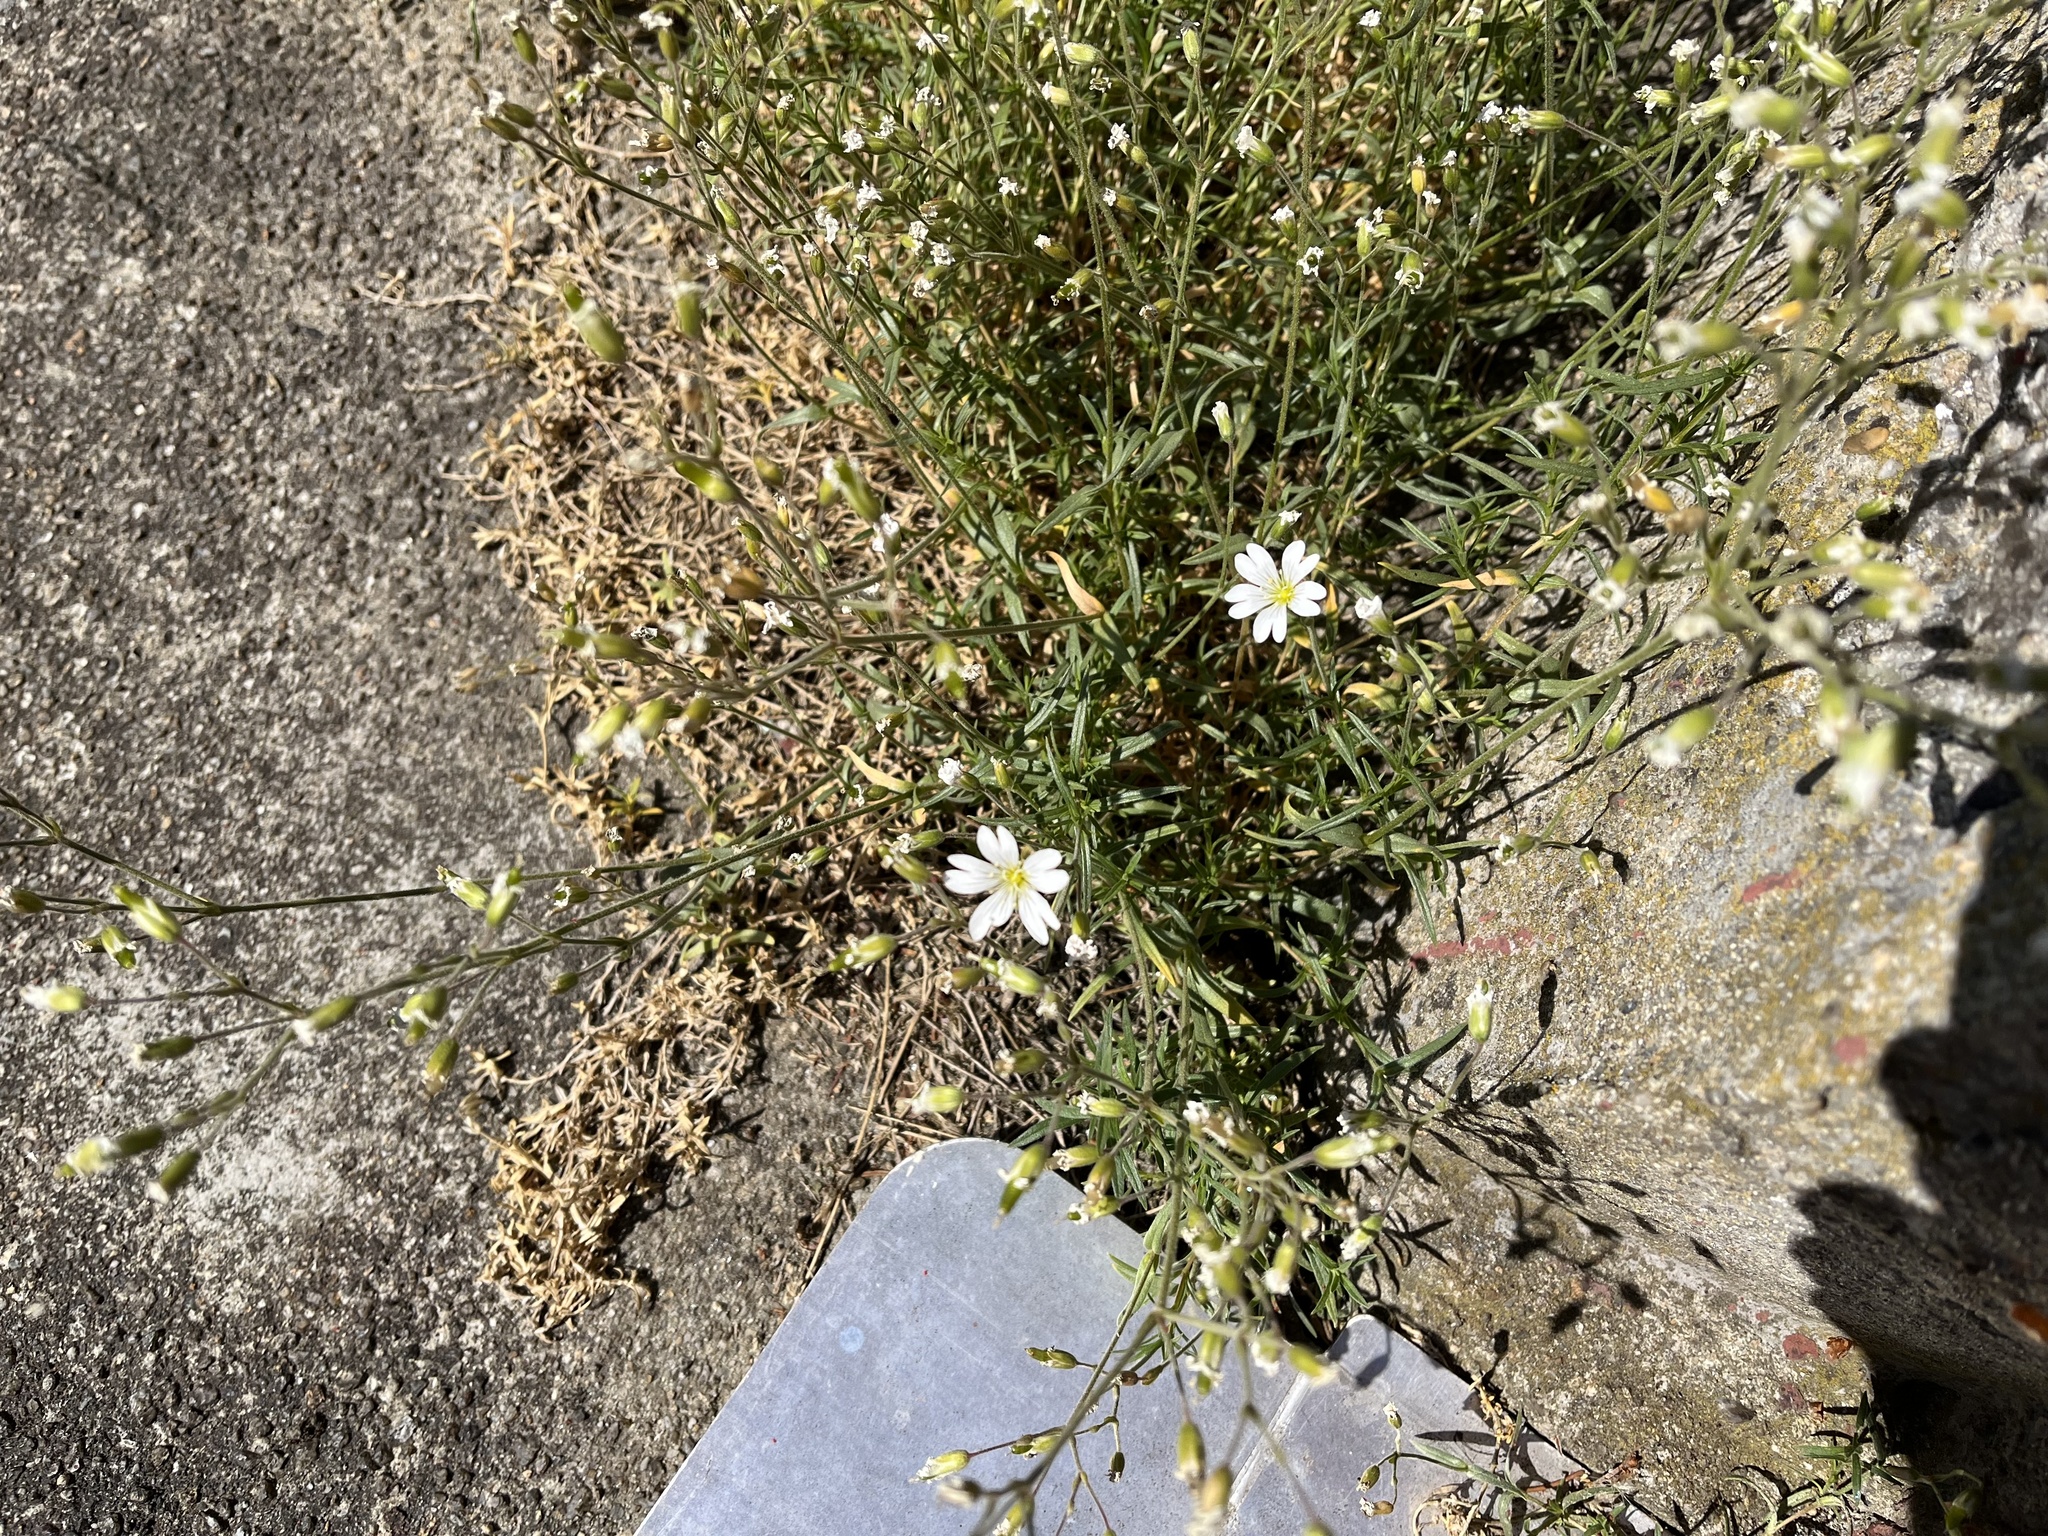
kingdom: Plantae
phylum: Tracheophyta
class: Magnoliopsida
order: Caryophyllales
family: Caryophyllaceae
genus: Cerastium
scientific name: Cerastium arvense
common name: Field mouse-ear
